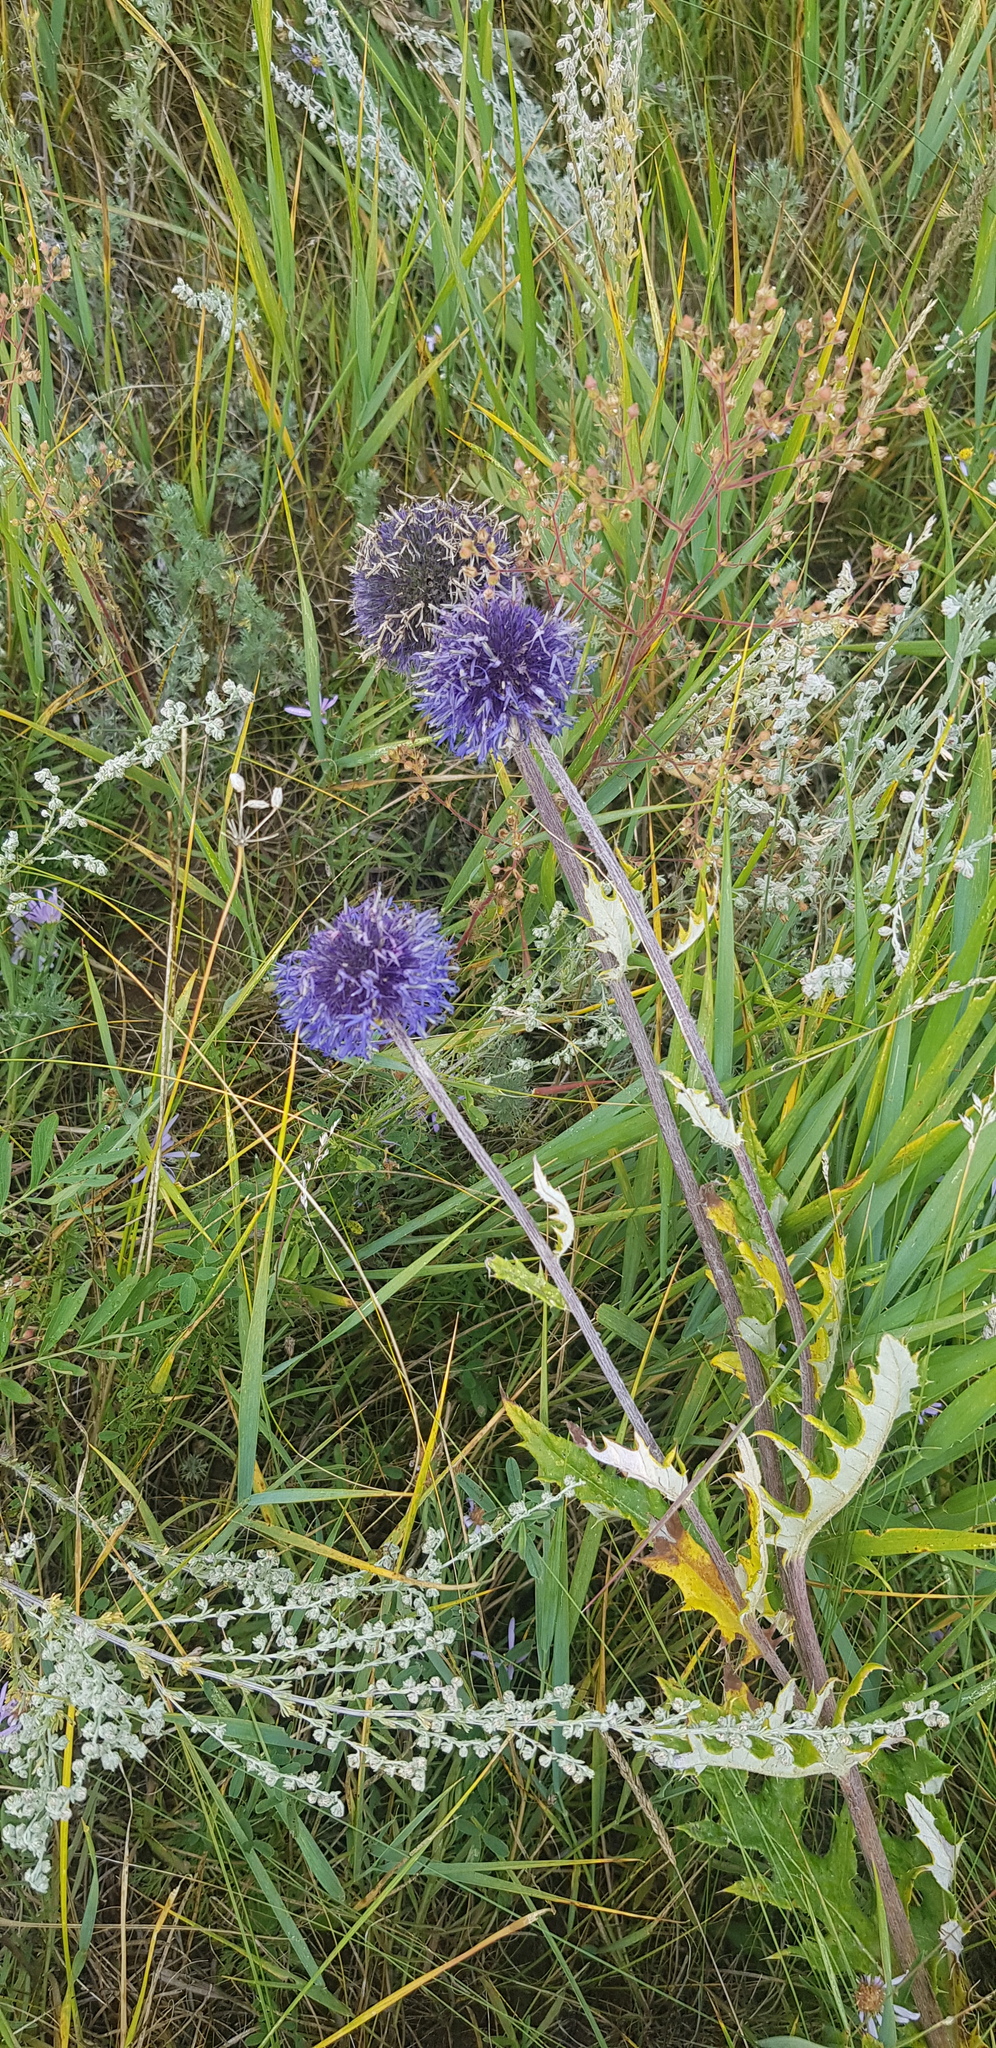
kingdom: Plantae
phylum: Tracheophyta
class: Magnoliopsida
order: Asterales
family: Asteraceae
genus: Echinops
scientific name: Echinops davuricus
